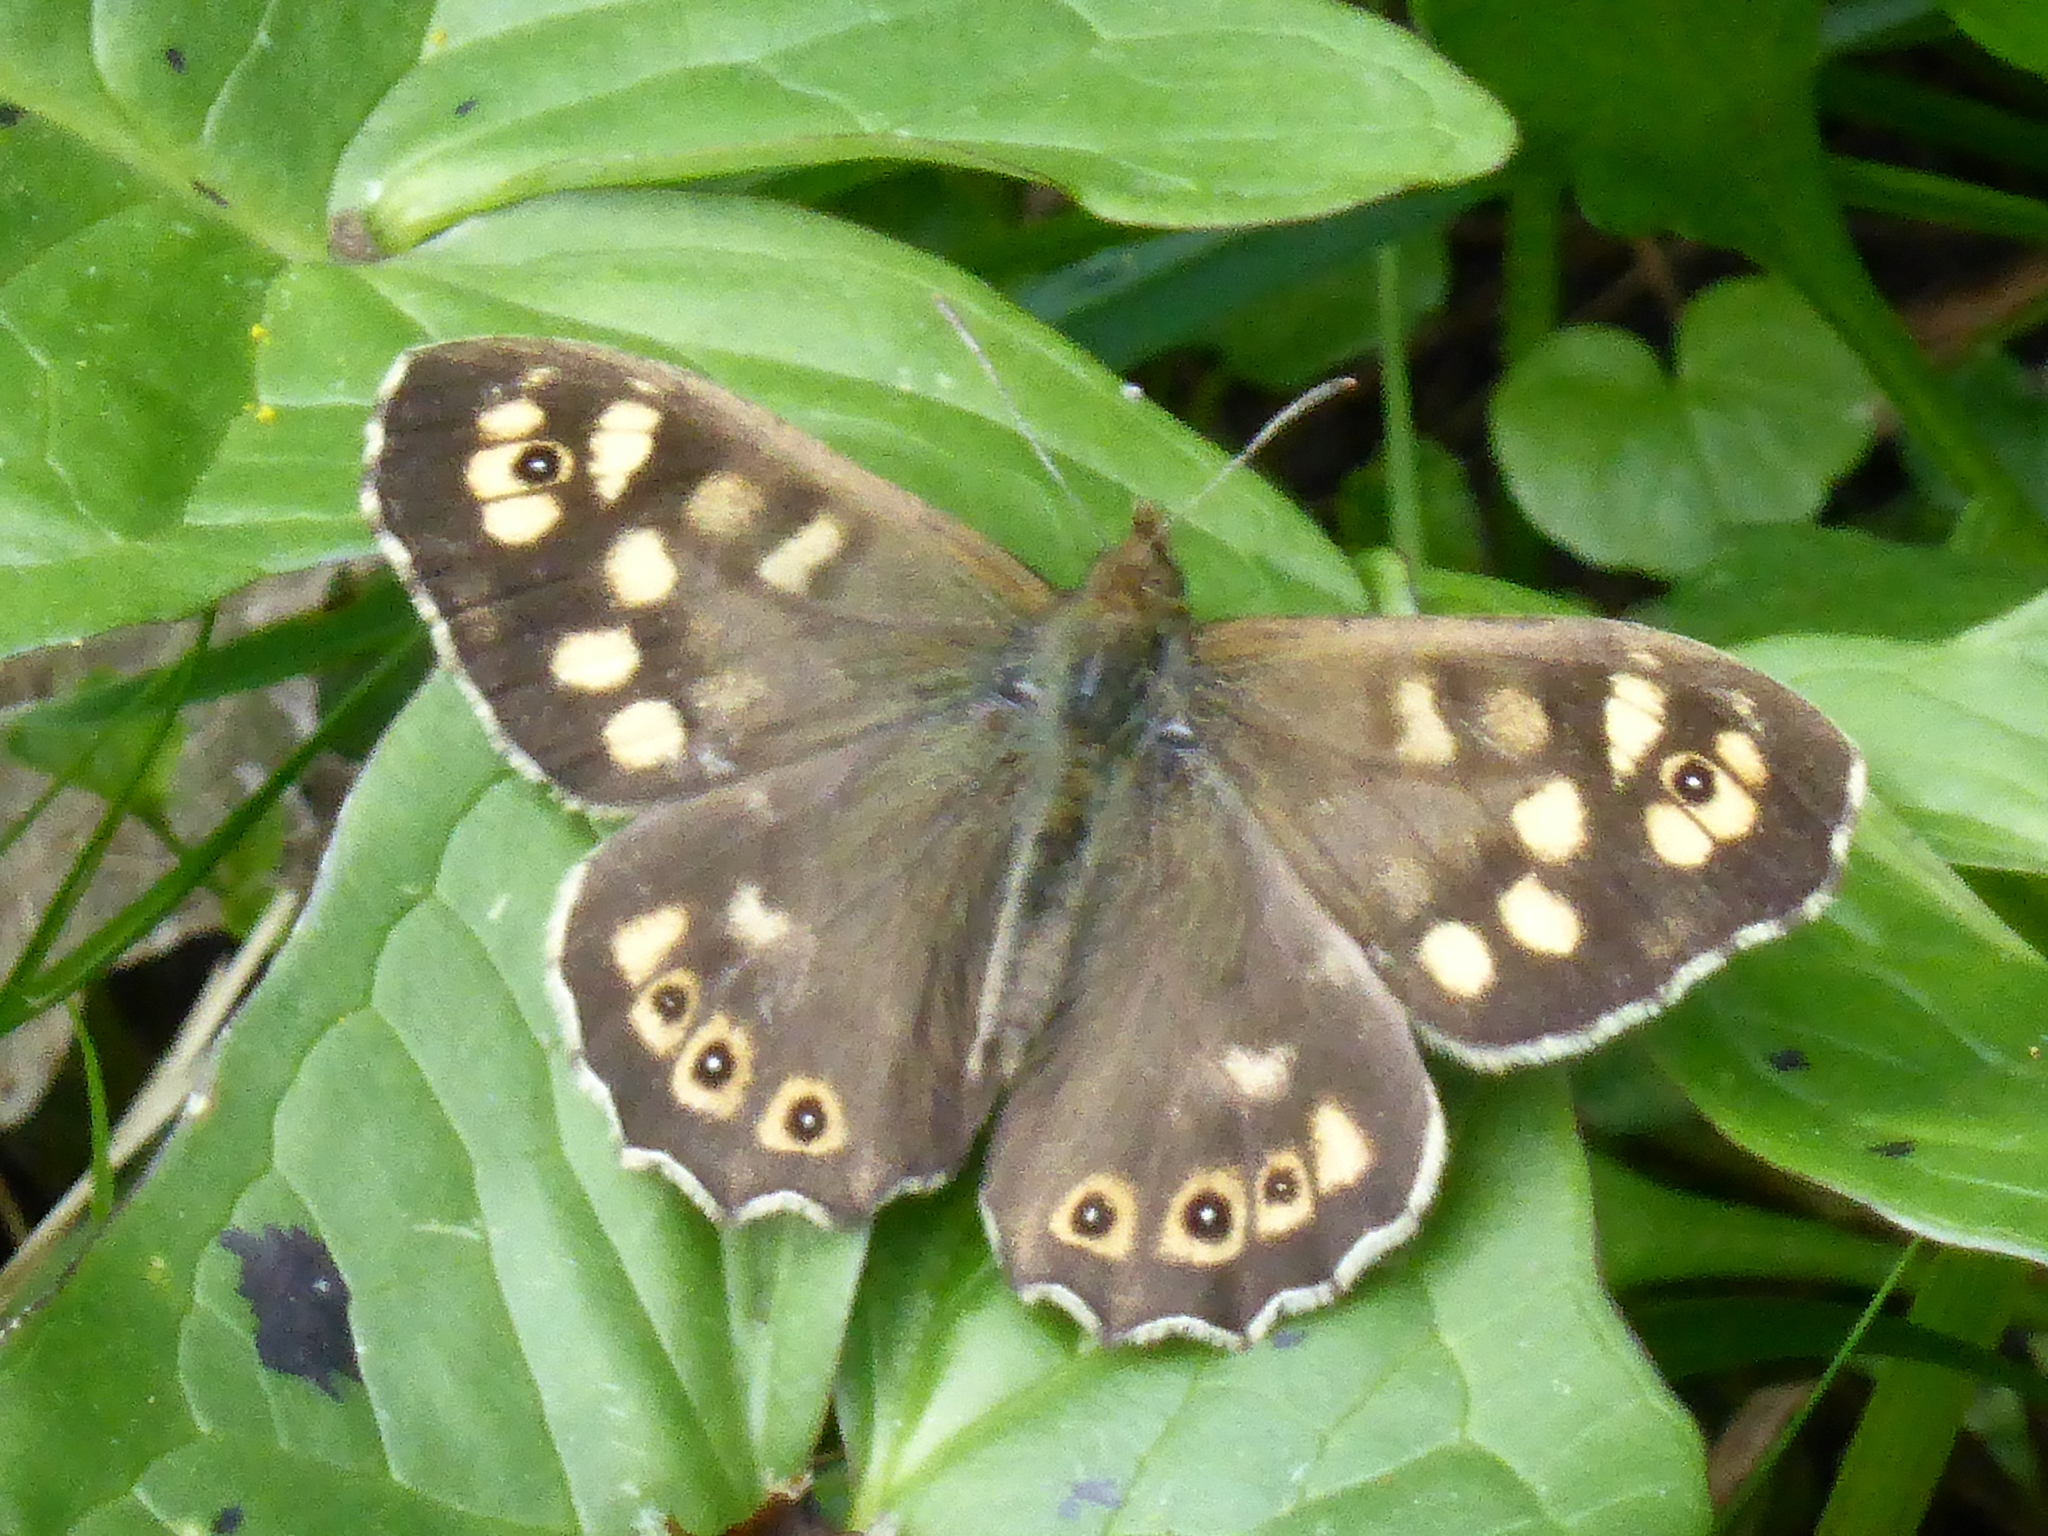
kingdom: Animalia
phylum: Arthropoda
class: Insecta
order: Lepidoptera
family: Nymphalidae
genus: Pararge
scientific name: Pararge aegeria
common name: Speckled wood
